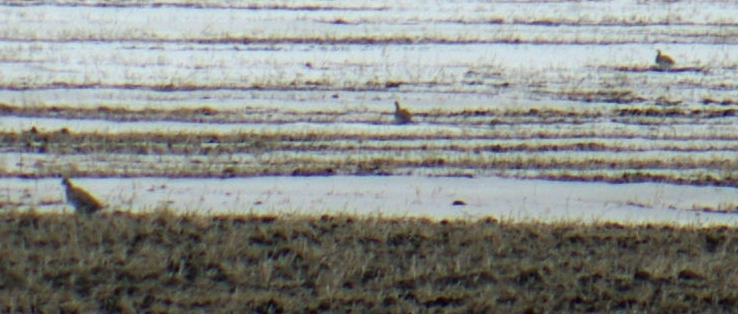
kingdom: Animalia
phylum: Chordata
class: Aves
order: Galliformes
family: Phasianidae
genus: Tympanuchus
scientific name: Tympanuchus phasianellus
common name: Sharp-tailed grouse
